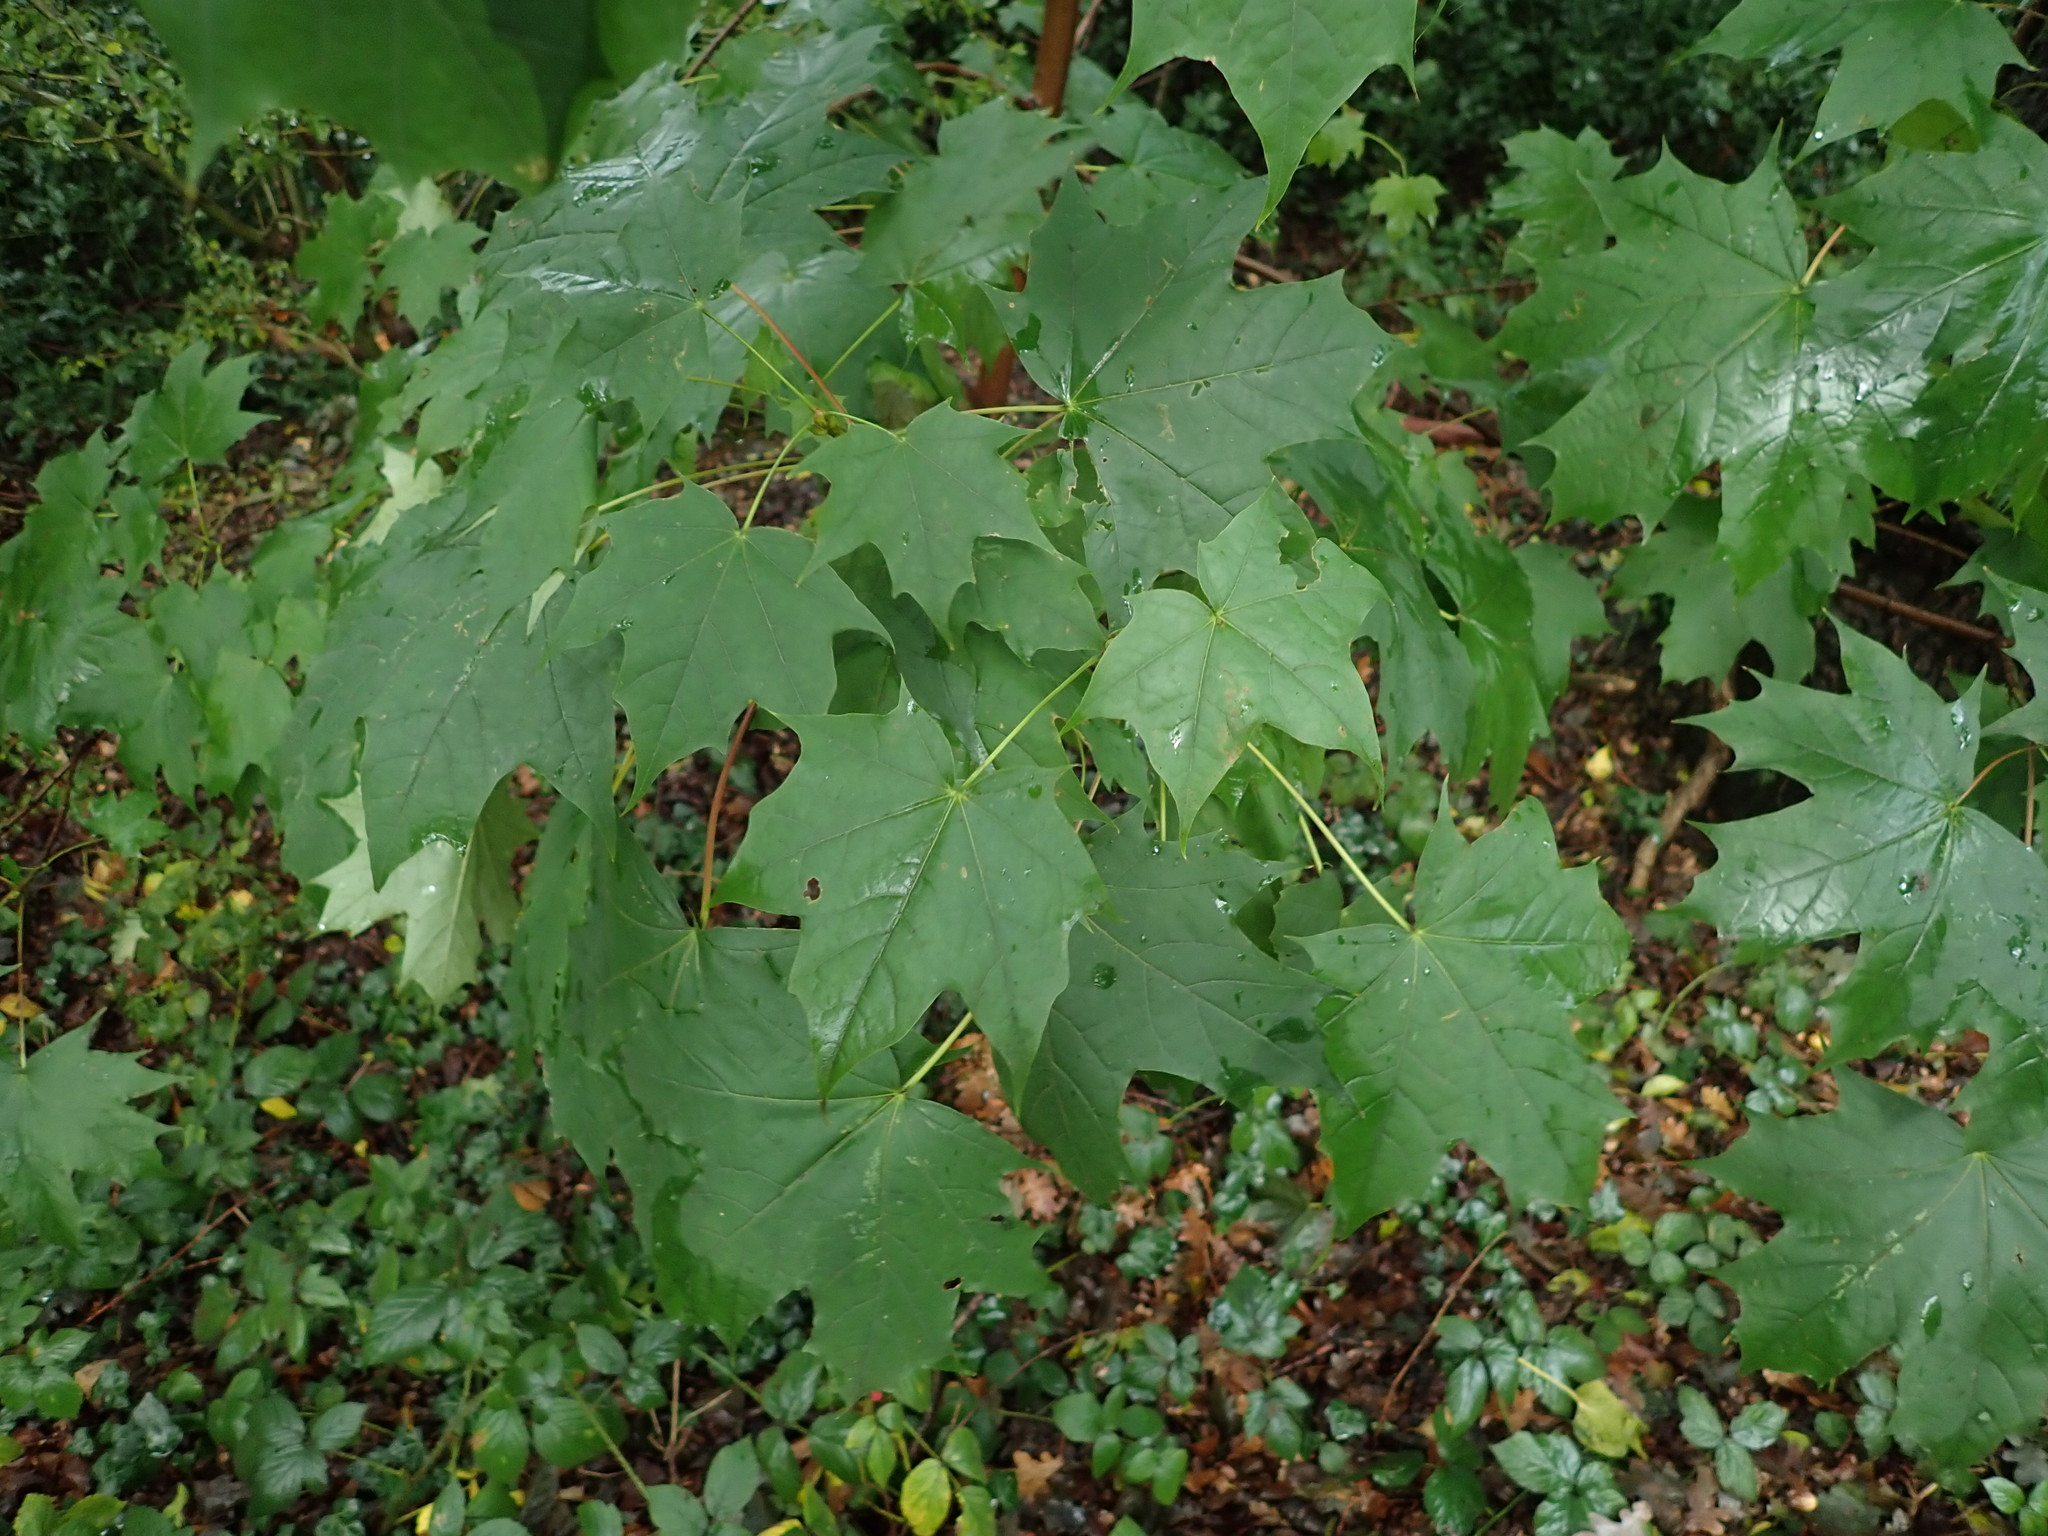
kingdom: Plantae
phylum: Tracheophyta
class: Magnoliopsida
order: Sapindales
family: Sapindaceae
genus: Acer
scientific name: Acer platanoides
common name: Norway maple
